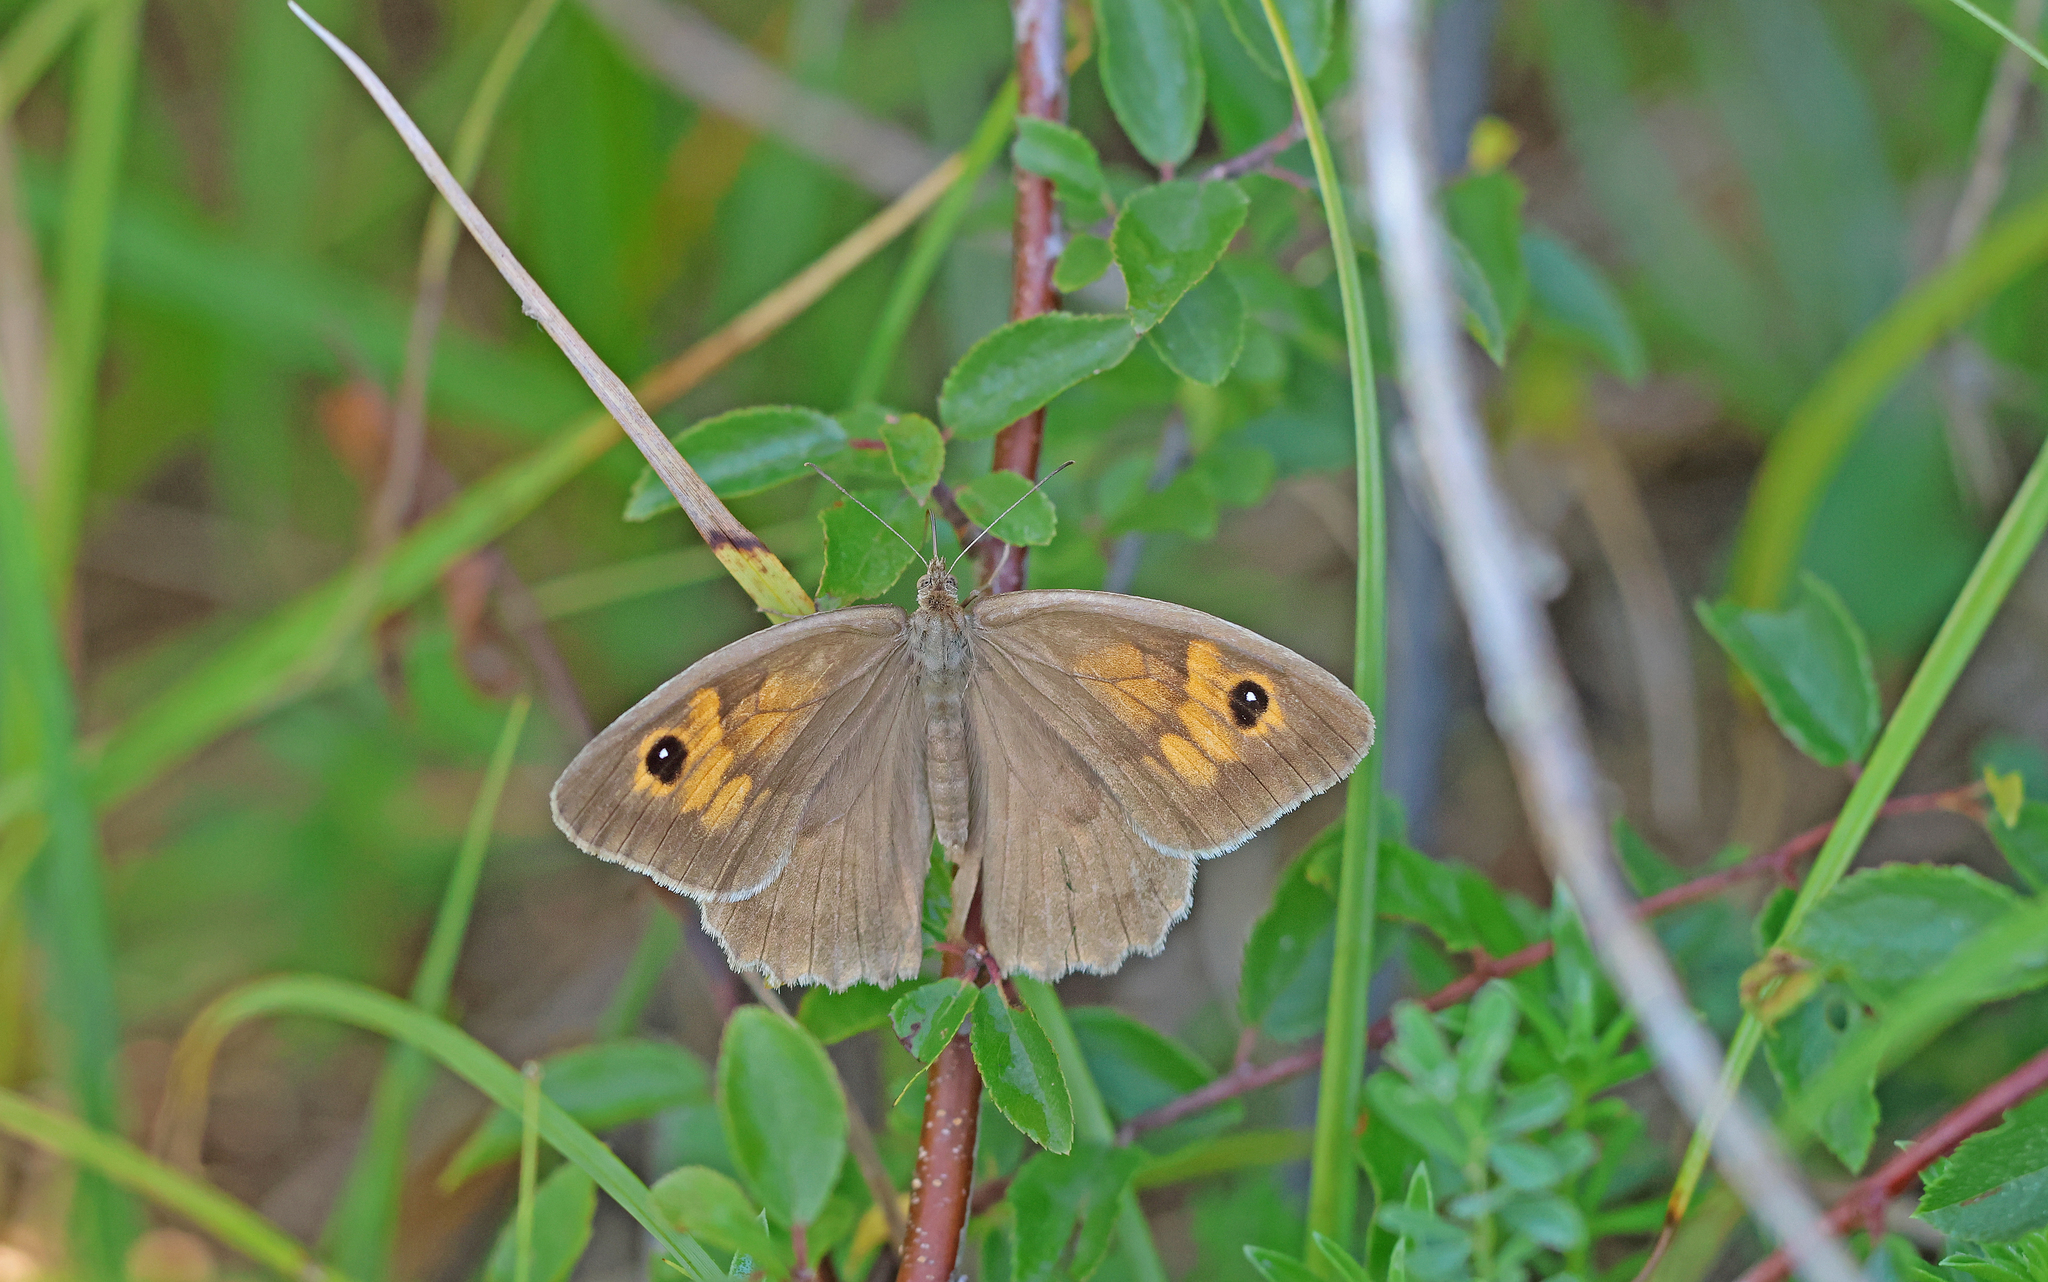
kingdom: Animalia
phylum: Arthropoda
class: Insecta
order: Lepidoptera
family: Nymphalidae
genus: Maniola
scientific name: Maniola jurtina
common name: Meadow brown
